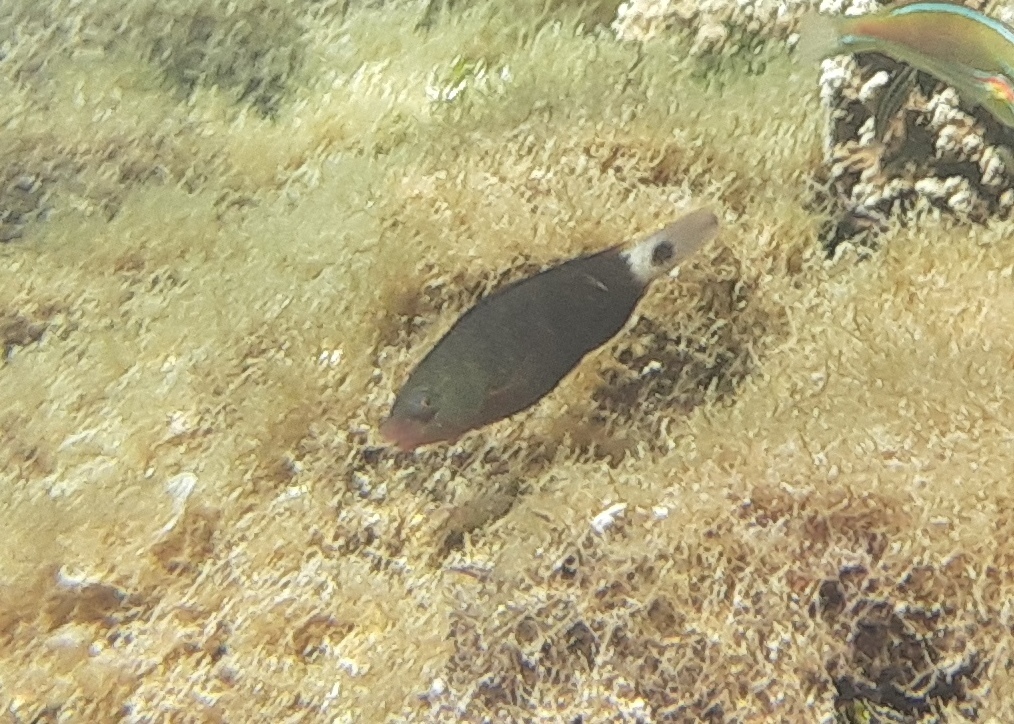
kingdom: Animalia
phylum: Chordata
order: Perciformes
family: Scaridae
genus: Chlorurus
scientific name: Chlorurus spilurus
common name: Bullethead parrotfish
